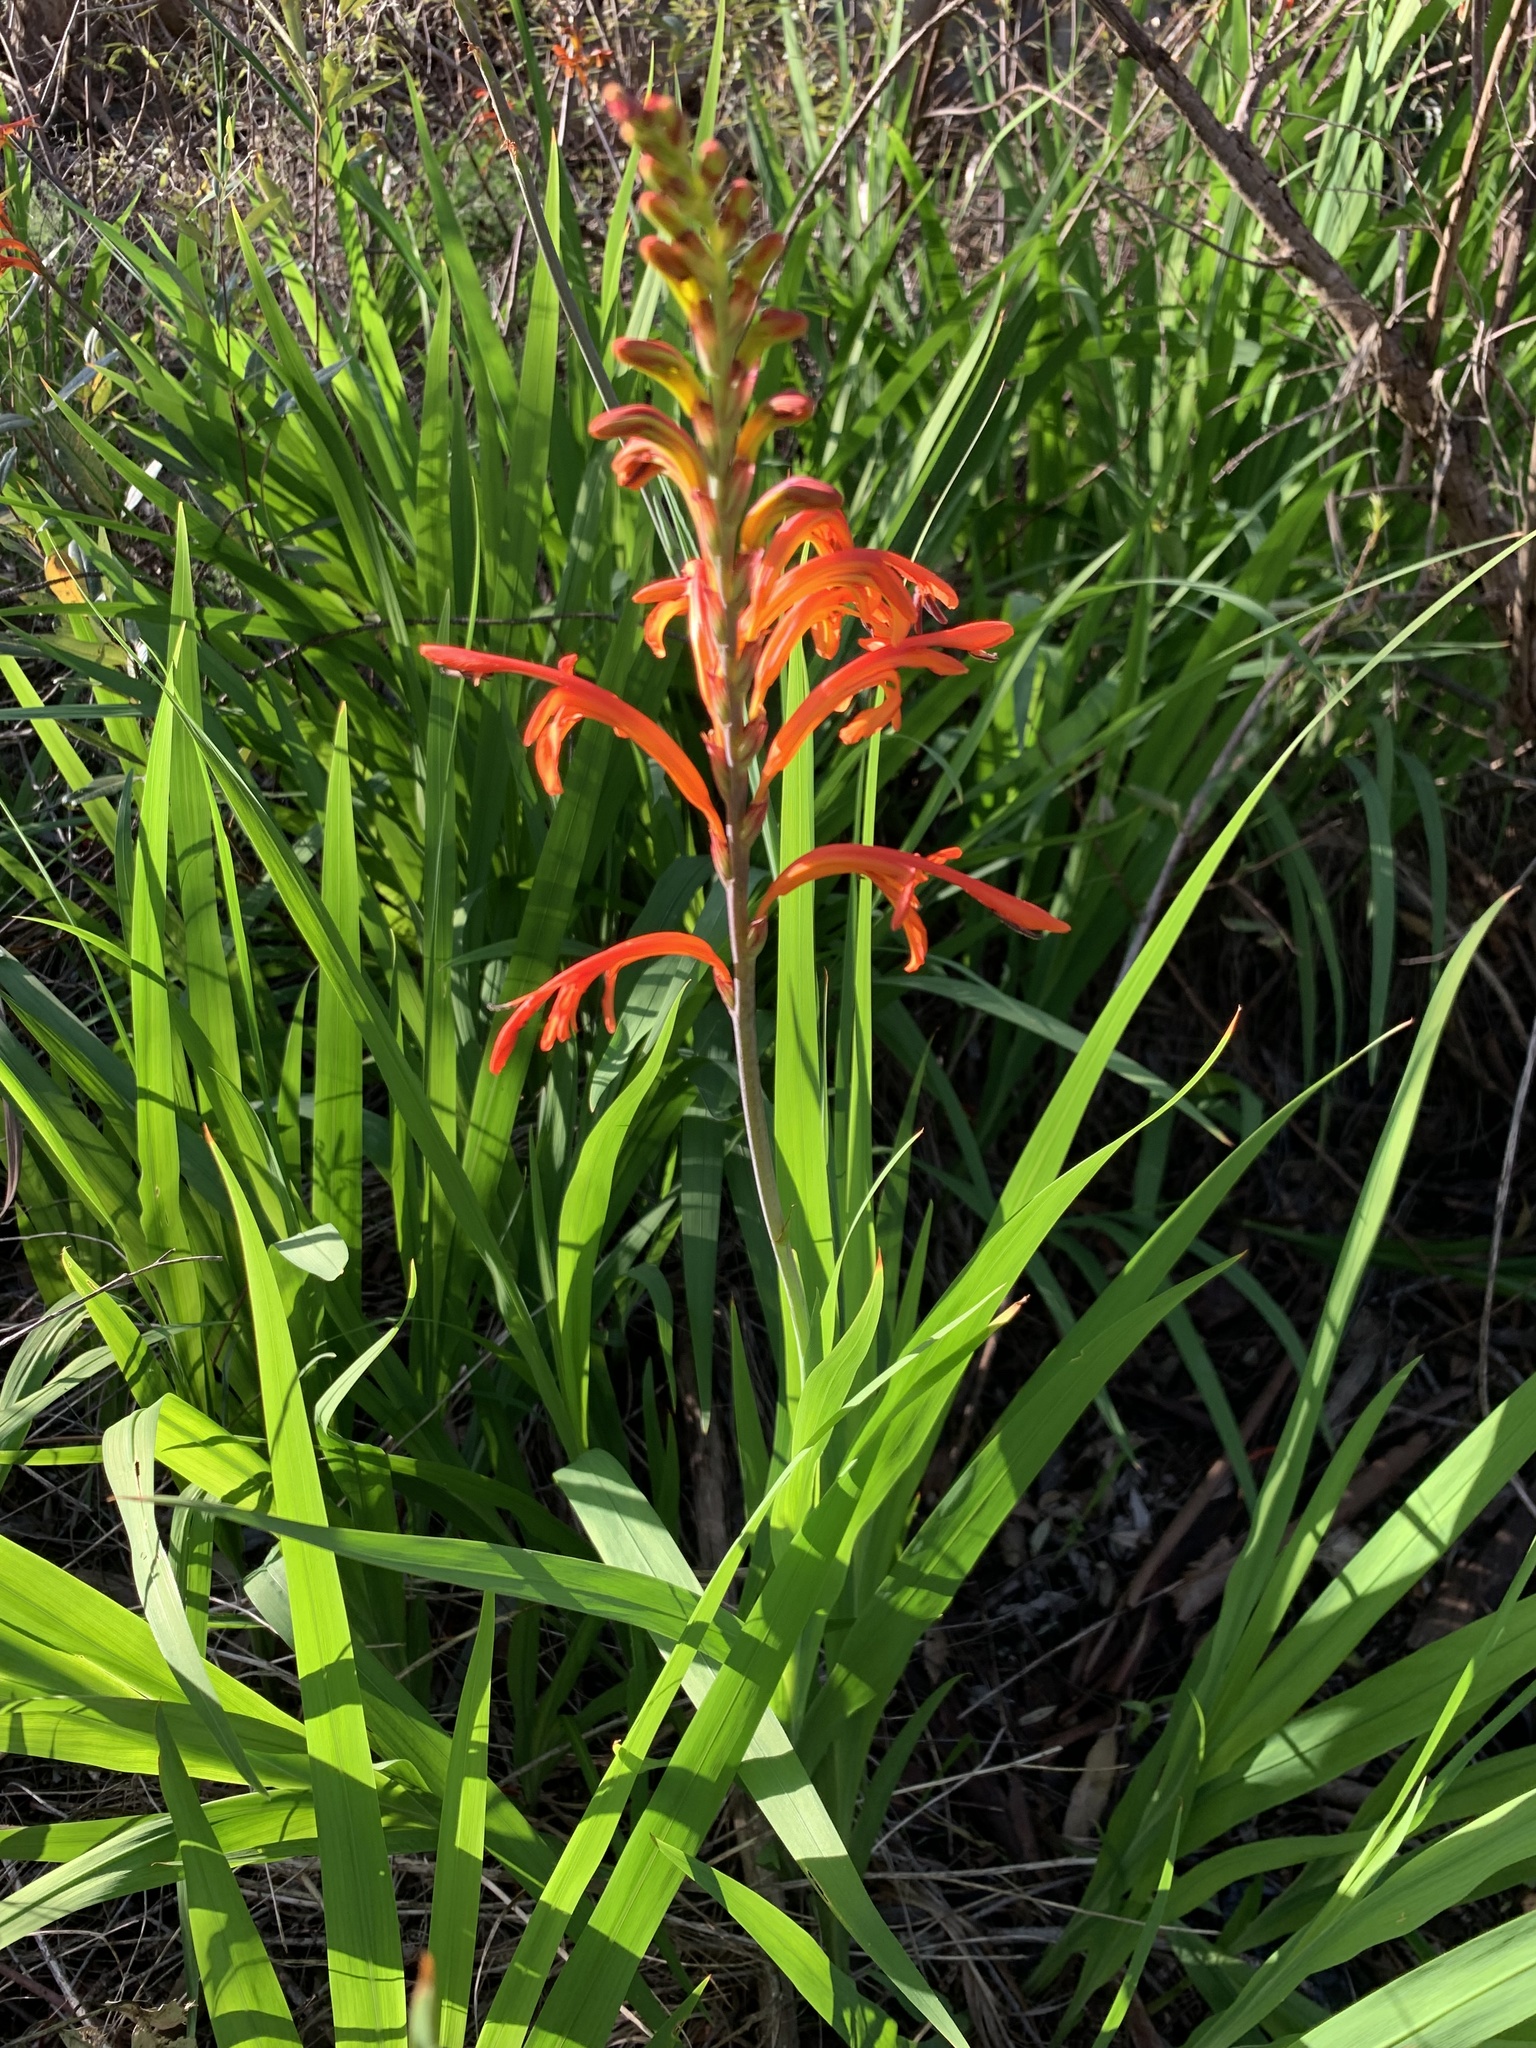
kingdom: Plantae
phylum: Tracheophyta
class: Liliopsida
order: Asparagales
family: Iridaceae
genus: Chasmanthe
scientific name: Chasmanthe floribunda
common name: African cornflag
